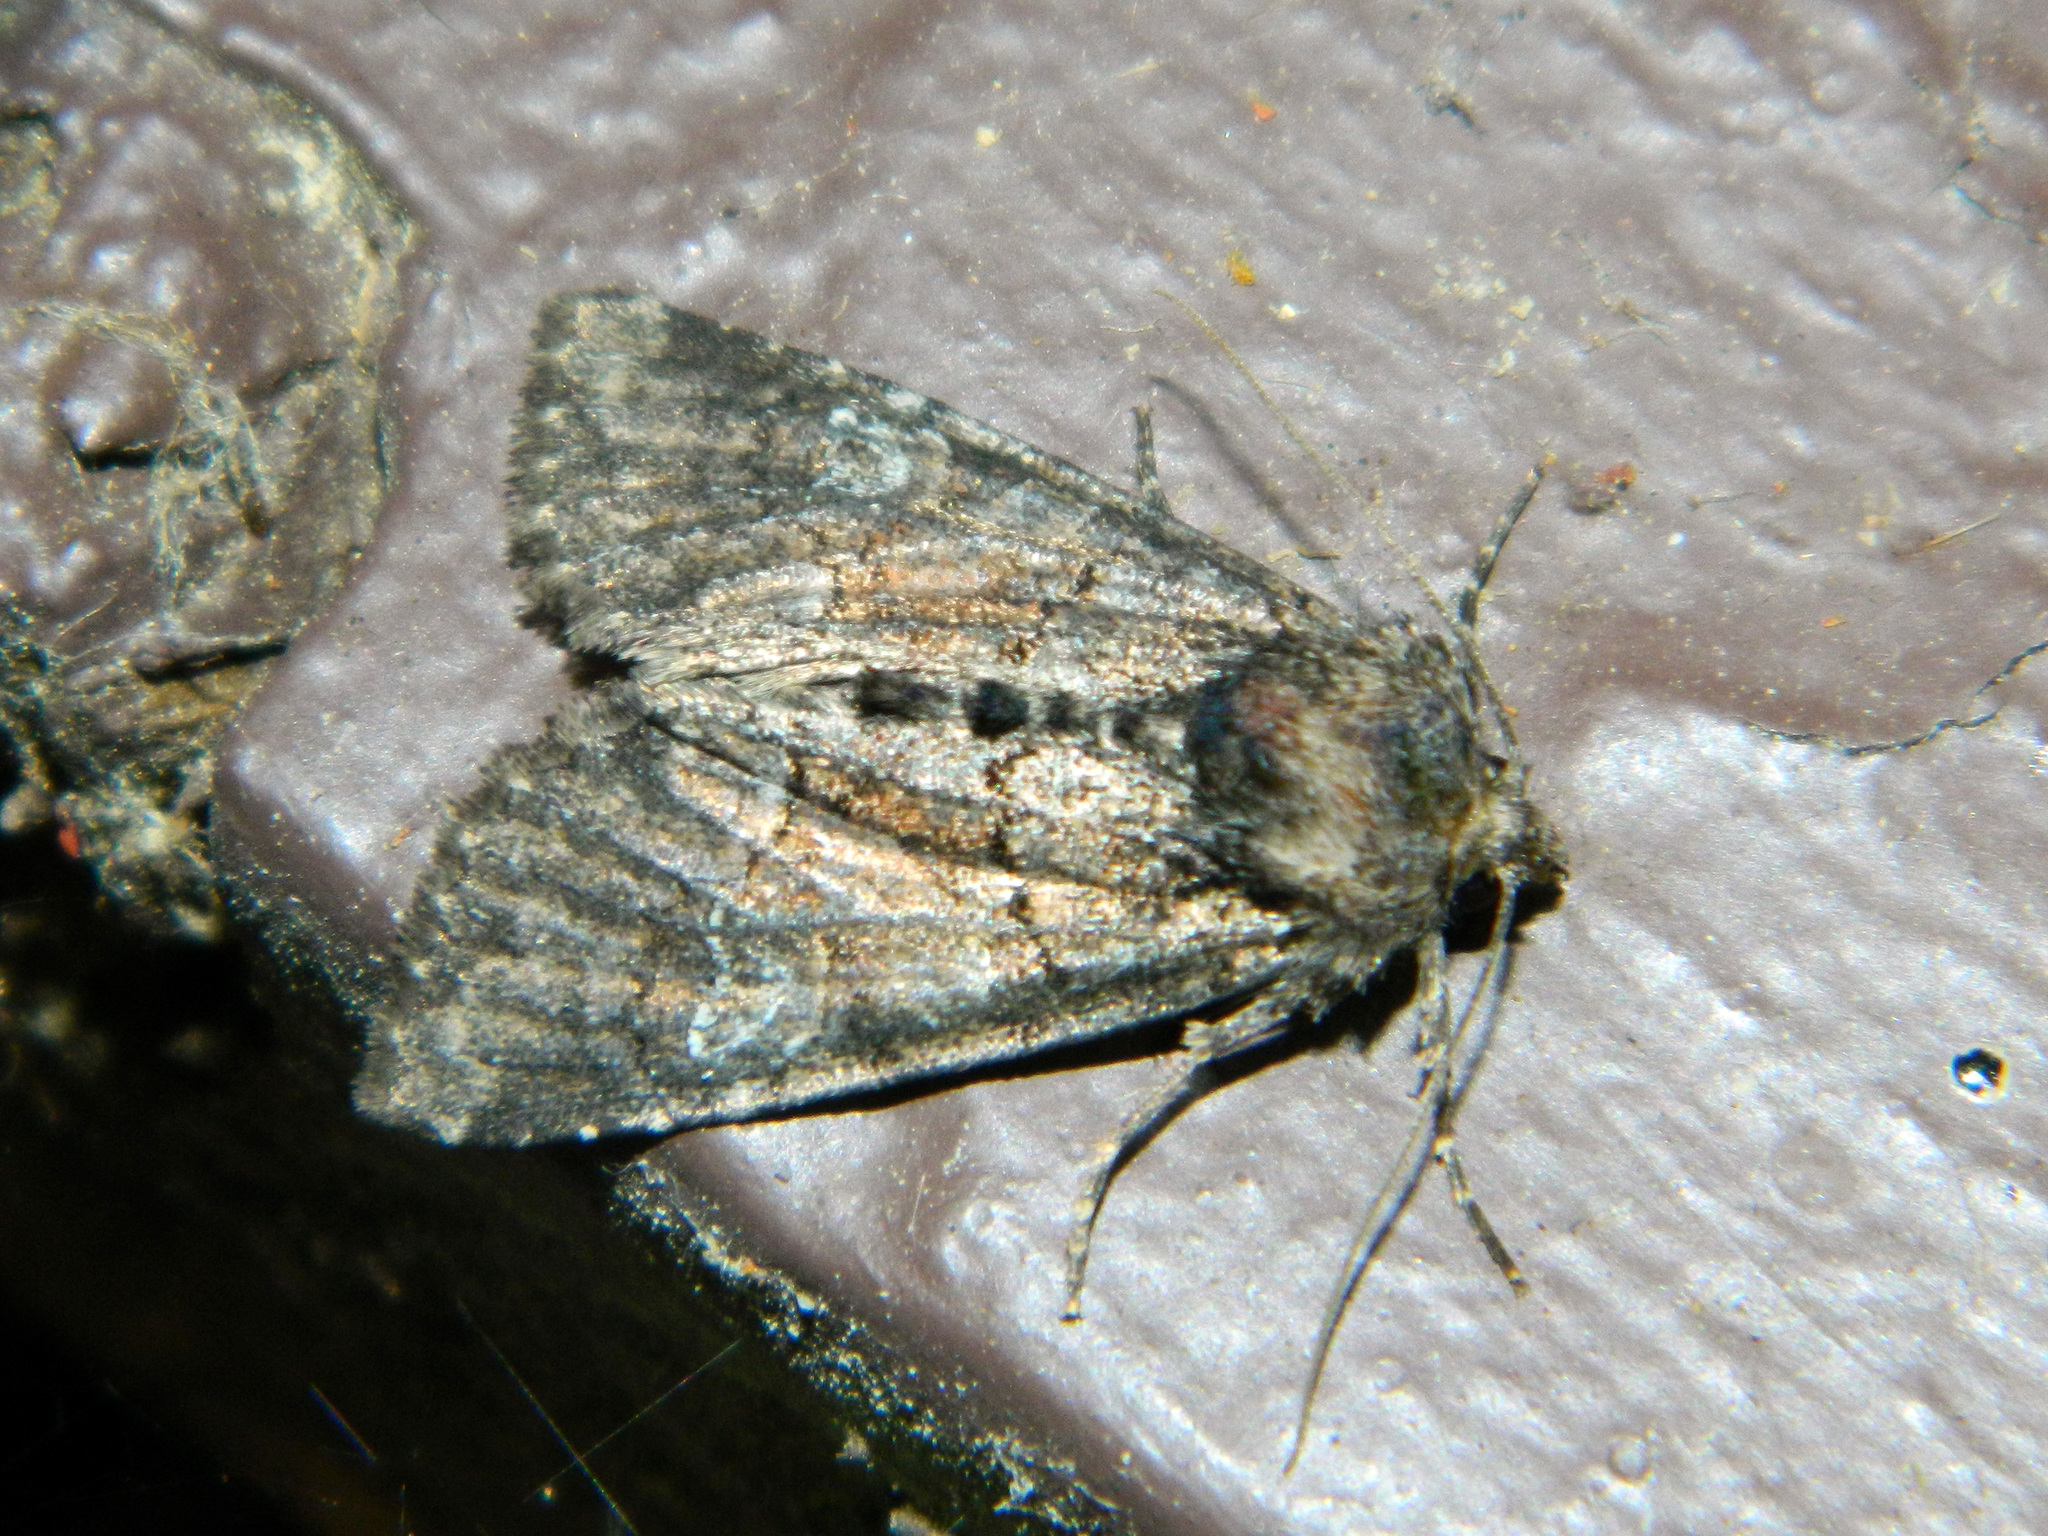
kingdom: Animalia
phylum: Arthropoda
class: Insecta
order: Lepidoptera
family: Noctuidae
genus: Fishia
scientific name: Fishia illocata
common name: Wandering brocade moth
